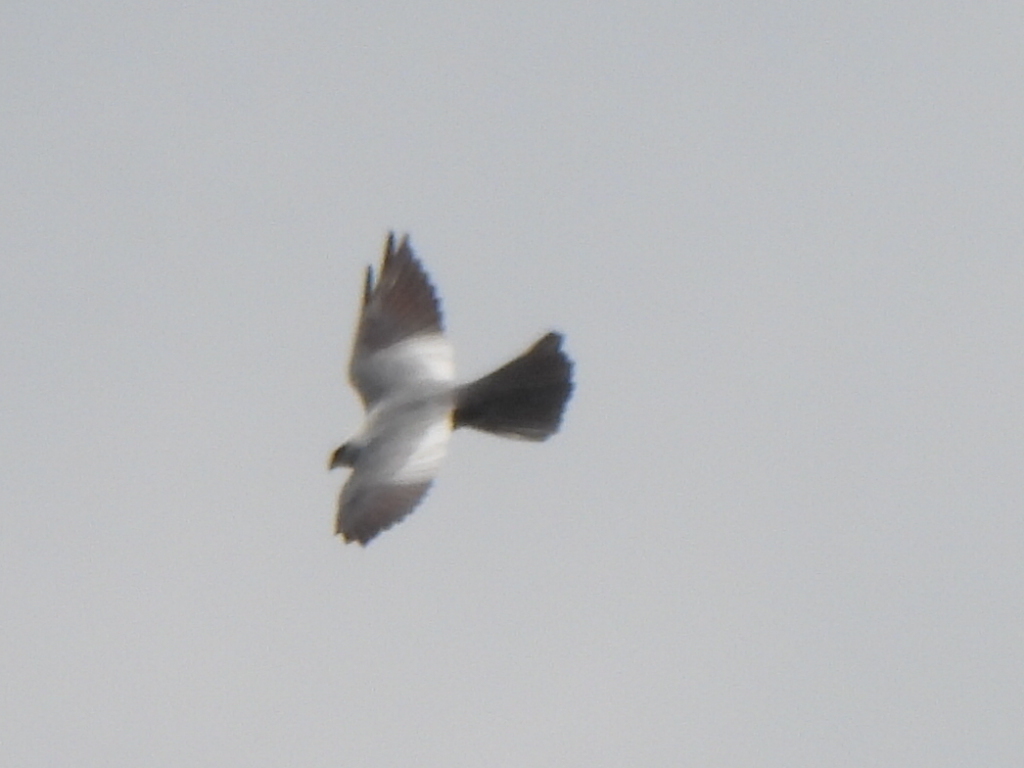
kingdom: Animalia
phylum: Chordata
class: Aves
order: Accipitriformes
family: Accipitridae
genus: Ictinia
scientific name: Ictinia mississippiensis
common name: Mississippi kite
